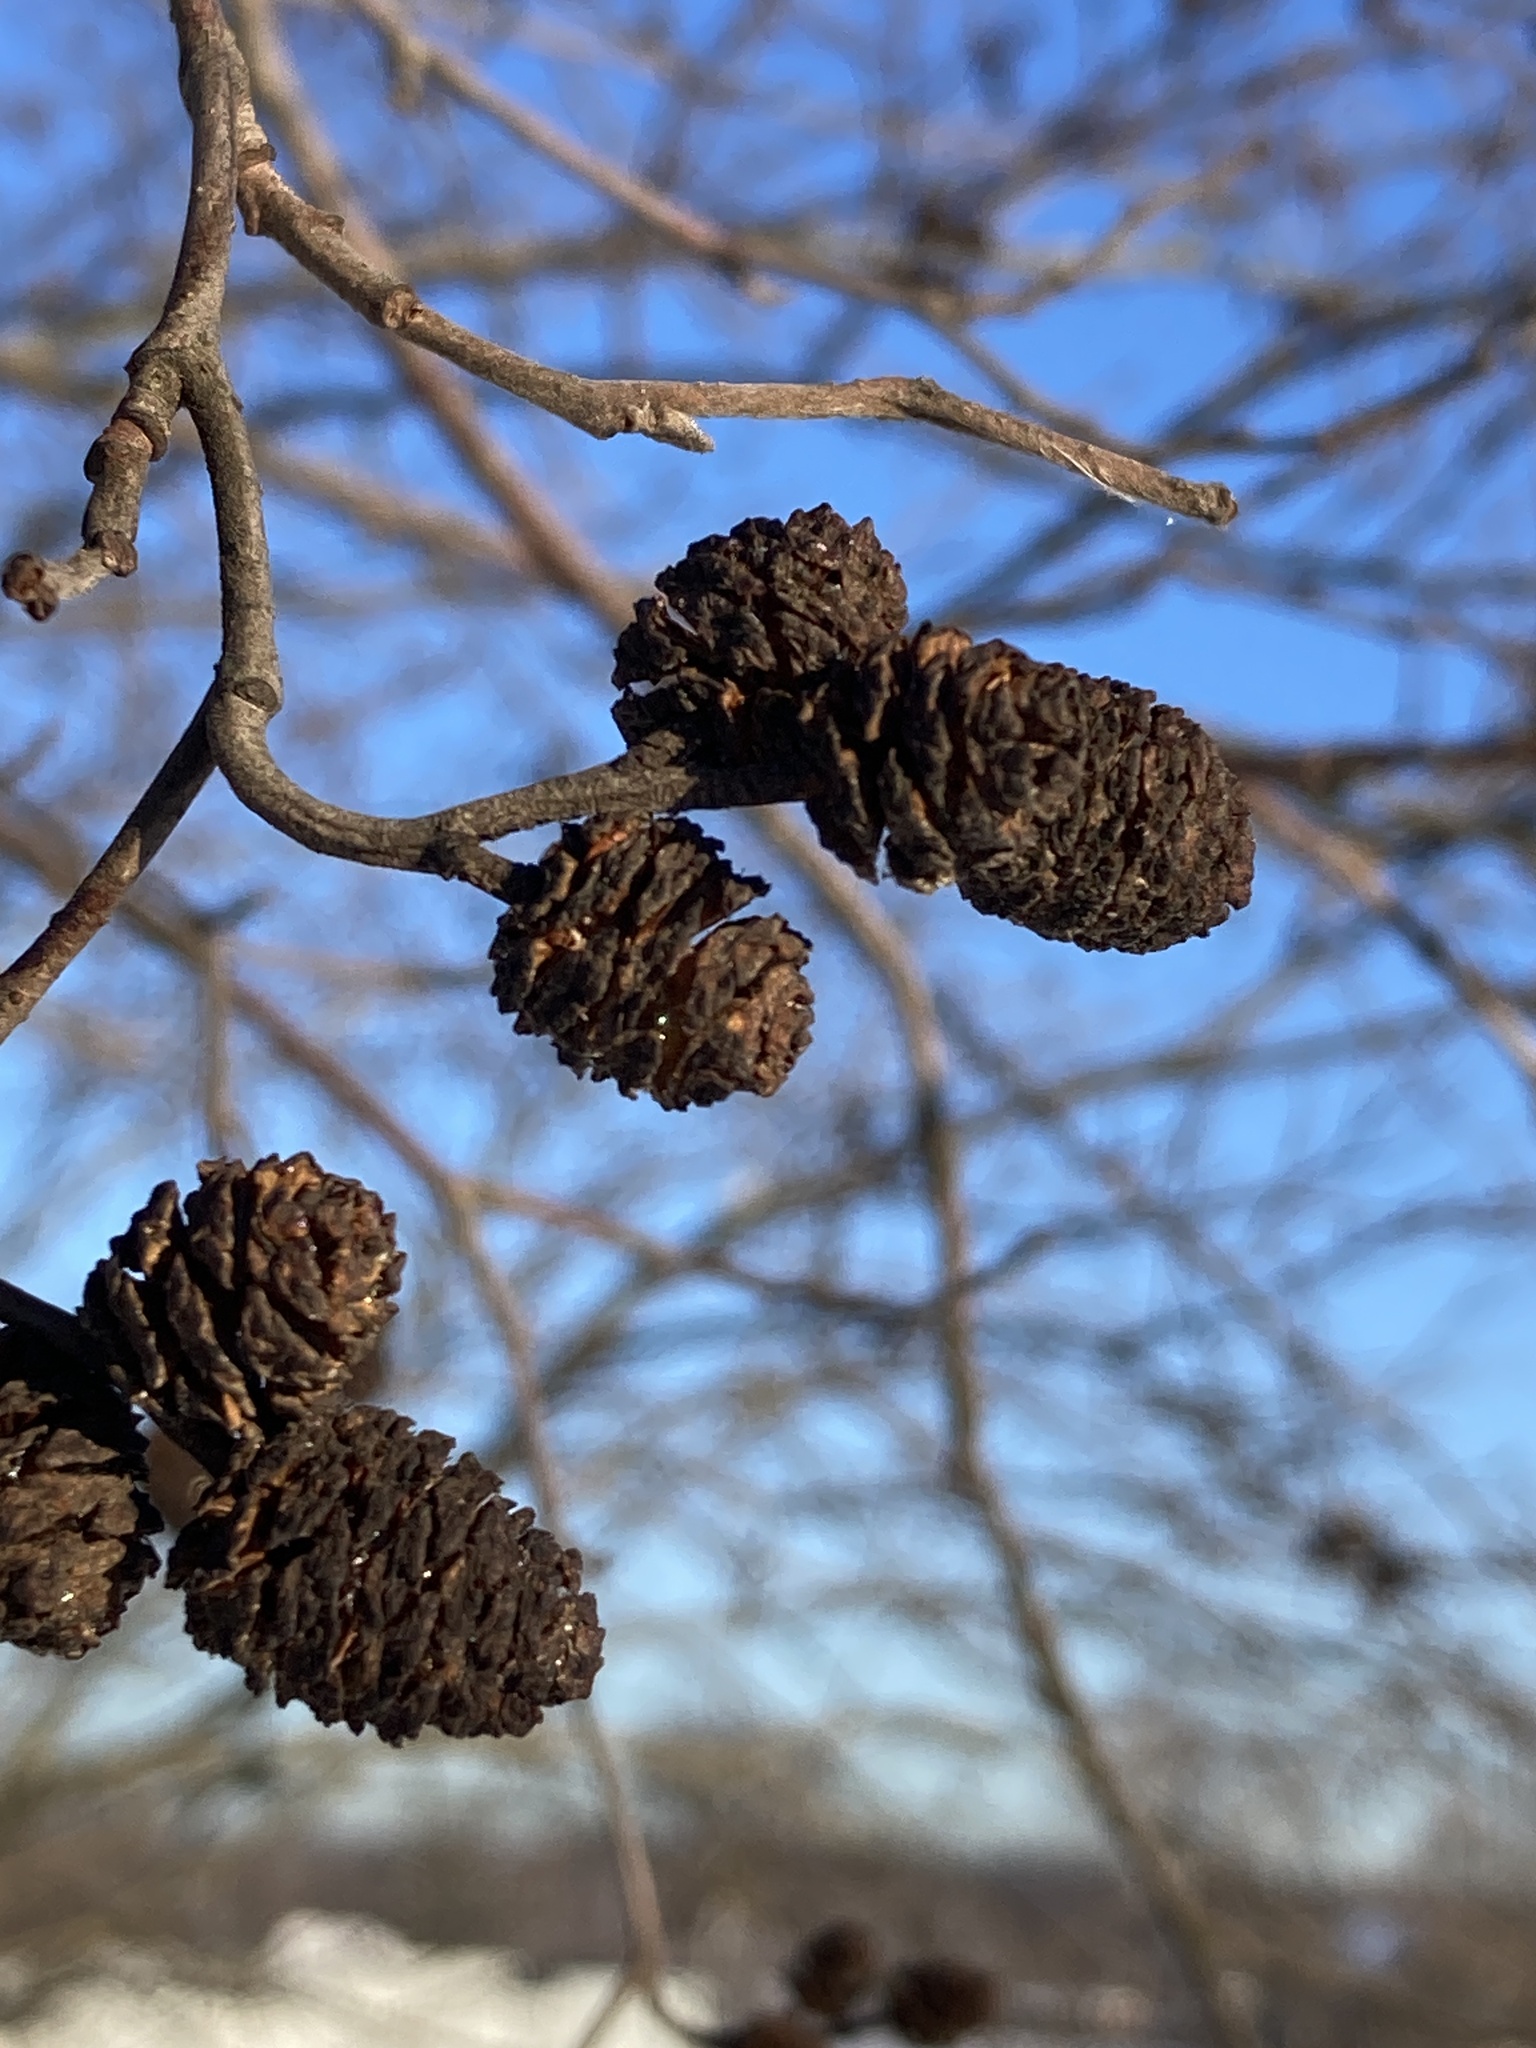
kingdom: Plantae
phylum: Tracheophyta
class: Magnoliopsida
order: Fagales
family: Betulaceae
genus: Alnus
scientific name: Alnus incana
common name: Grey alder
